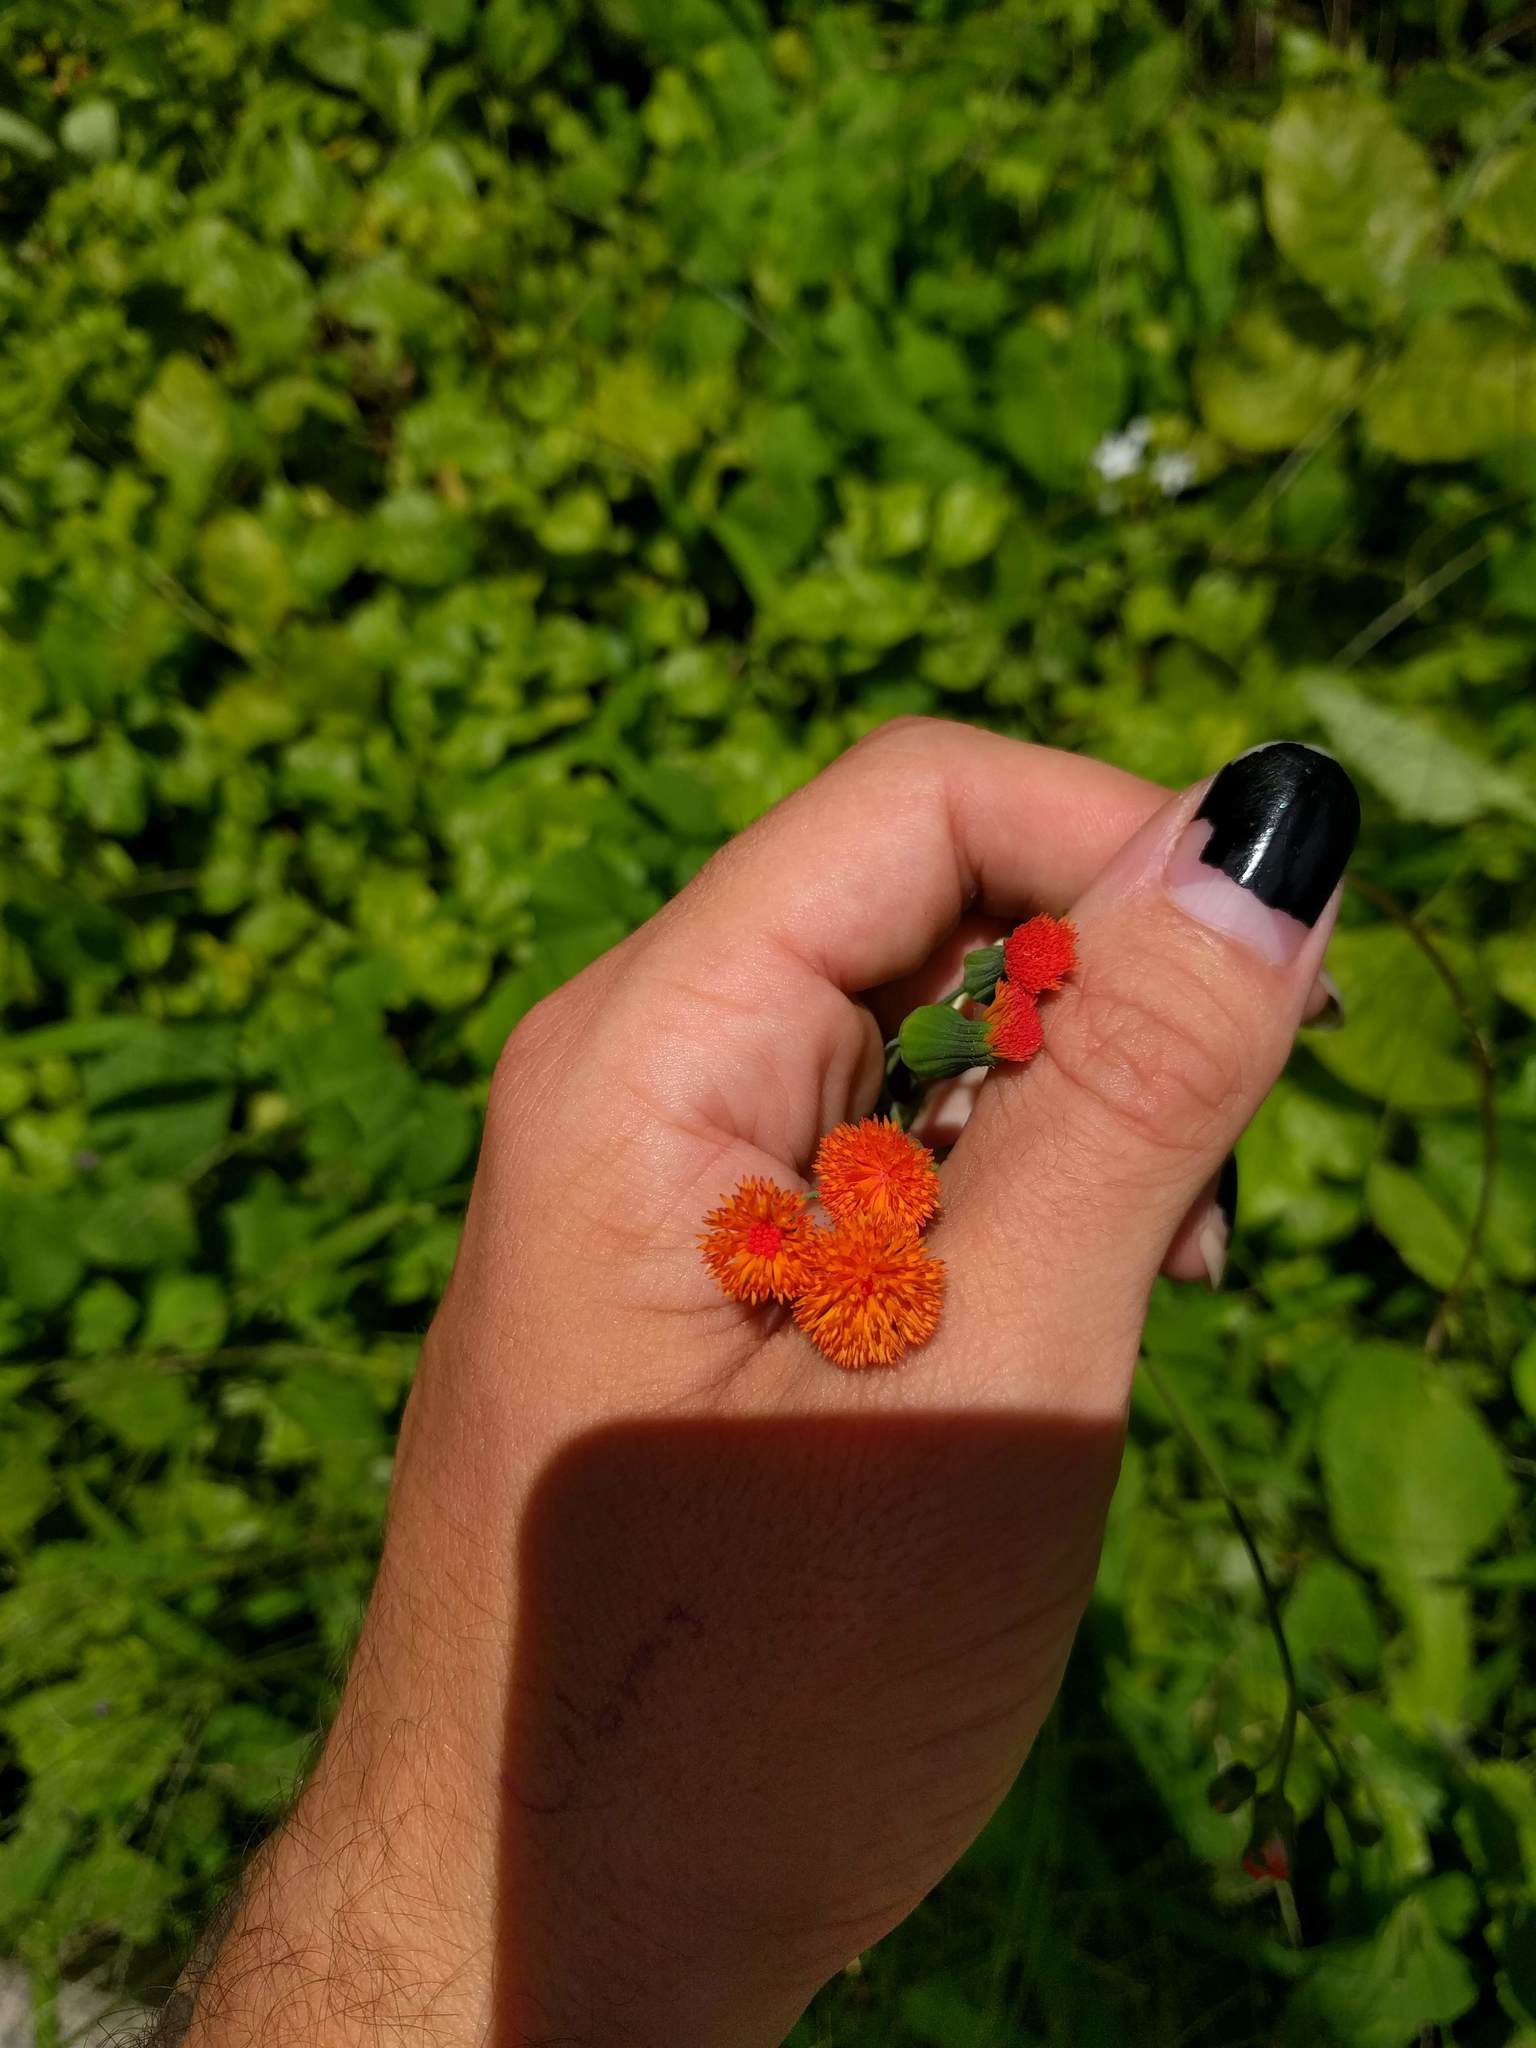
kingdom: Plantae
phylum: Tracheophyta
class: Magnoliopsida
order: Asterales
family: Asteraceae
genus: Emilia
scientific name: Emilia coccinea
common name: Scarlet tasselflower
